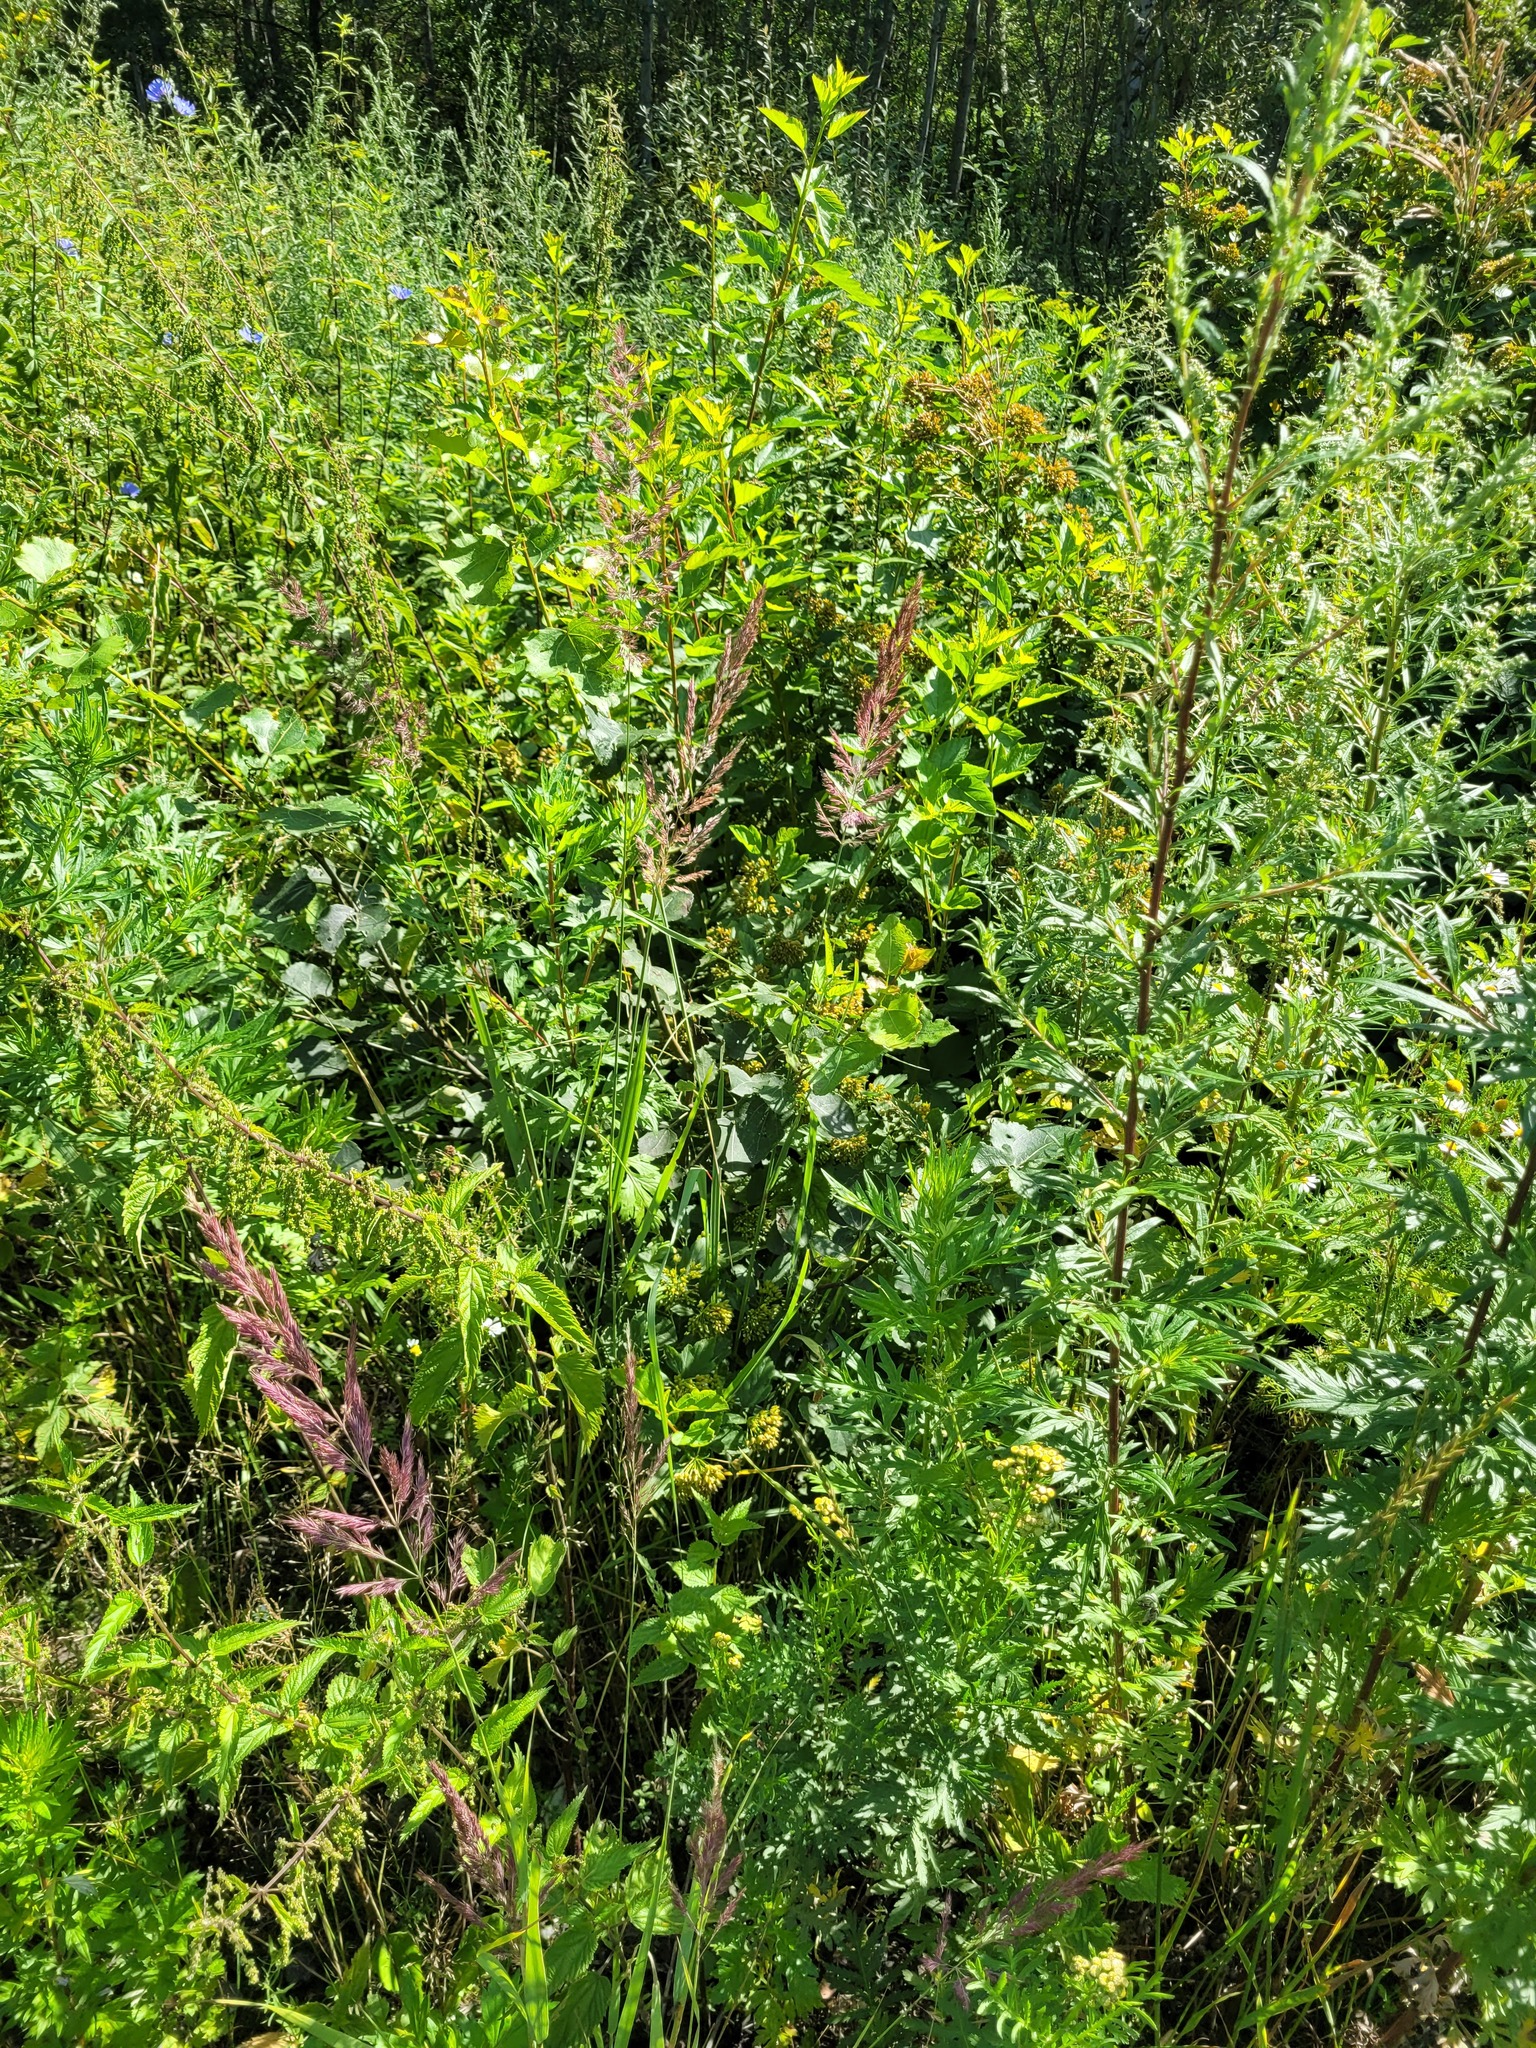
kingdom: Plantae
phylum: Tracheophyta
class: Liliopsida
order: Poales
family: Poaceae
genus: Calamagrostis
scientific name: Calamagrostis epigejos
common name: Wood small-reed
